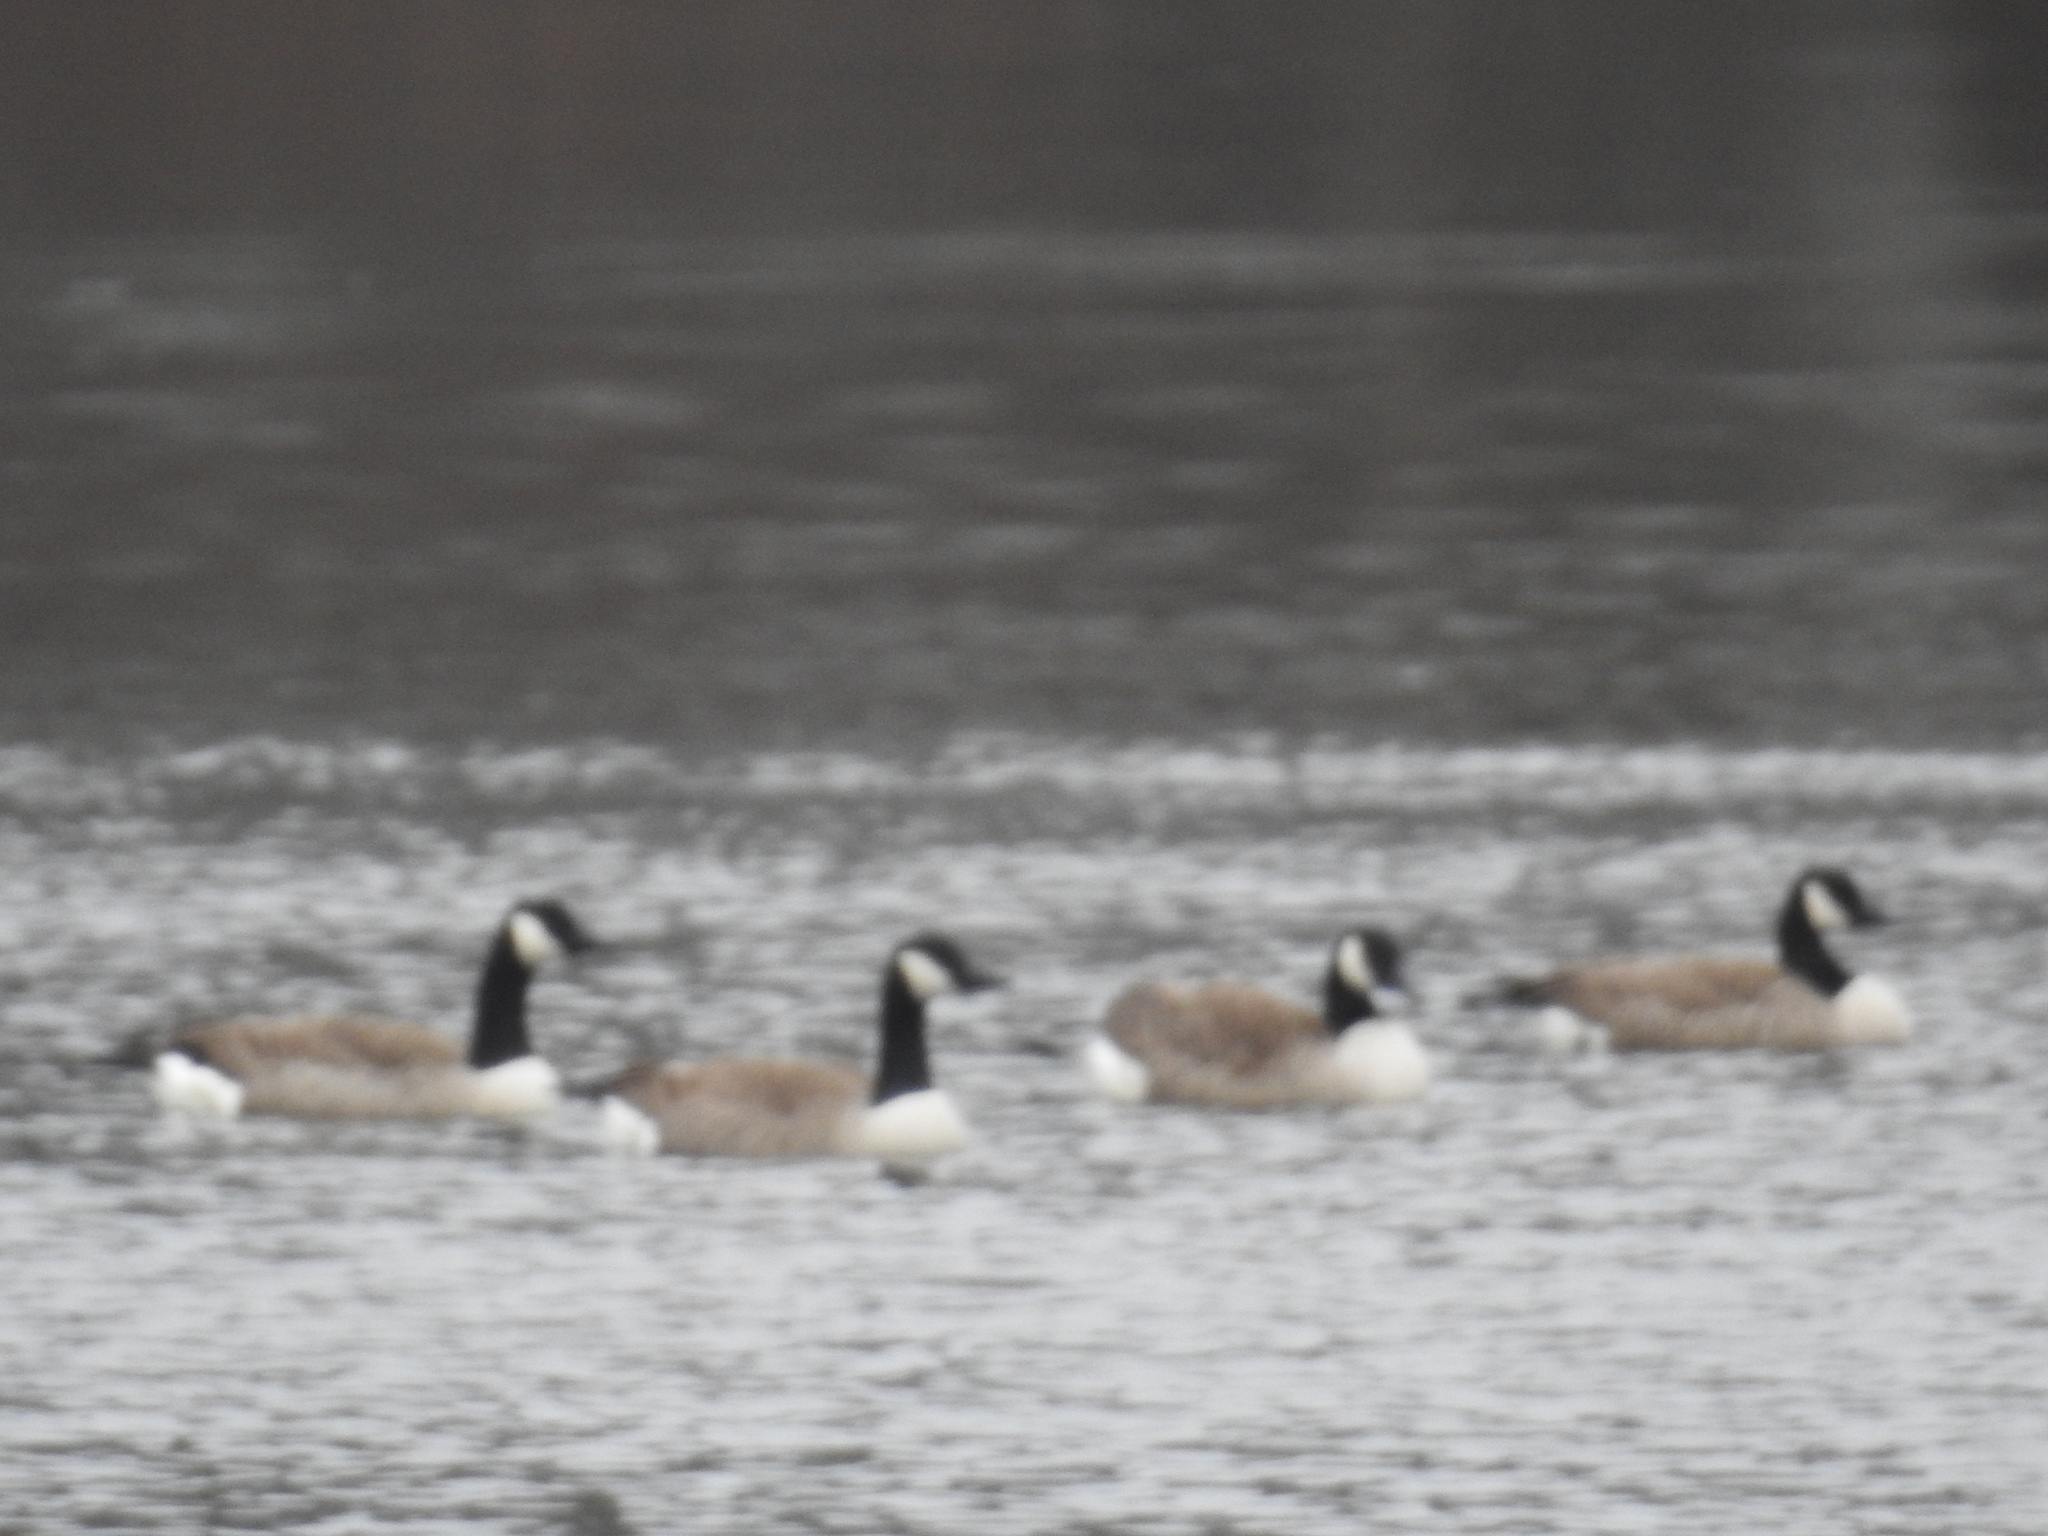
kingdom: Animalia
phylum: Chordata
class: Aves
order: Anseriformes
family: Anatidae
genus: Branta
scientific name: Branta canadensis
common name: Canada goose
